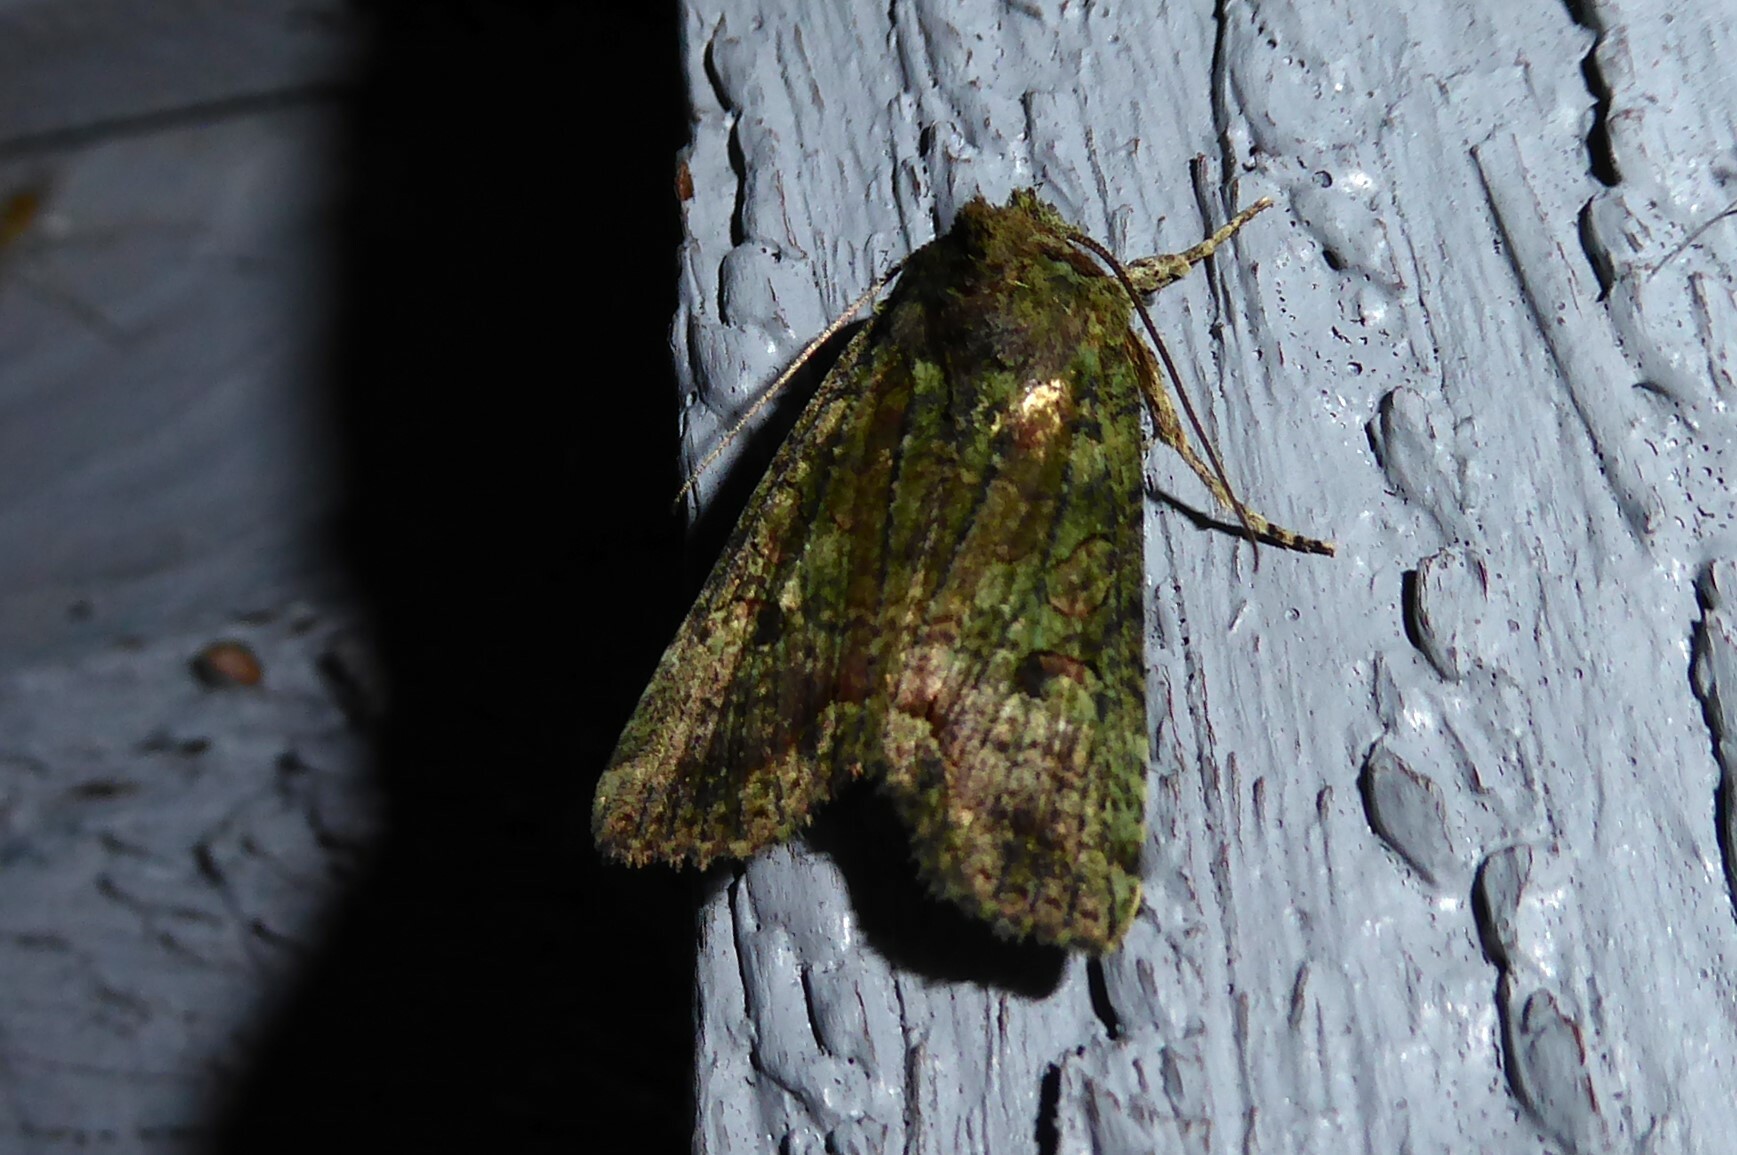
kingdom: Animalia
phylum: Arthropoda
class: Insecta
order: Lepidoptera
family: Noctuidae
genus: Meterana
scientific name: Meterana levis
